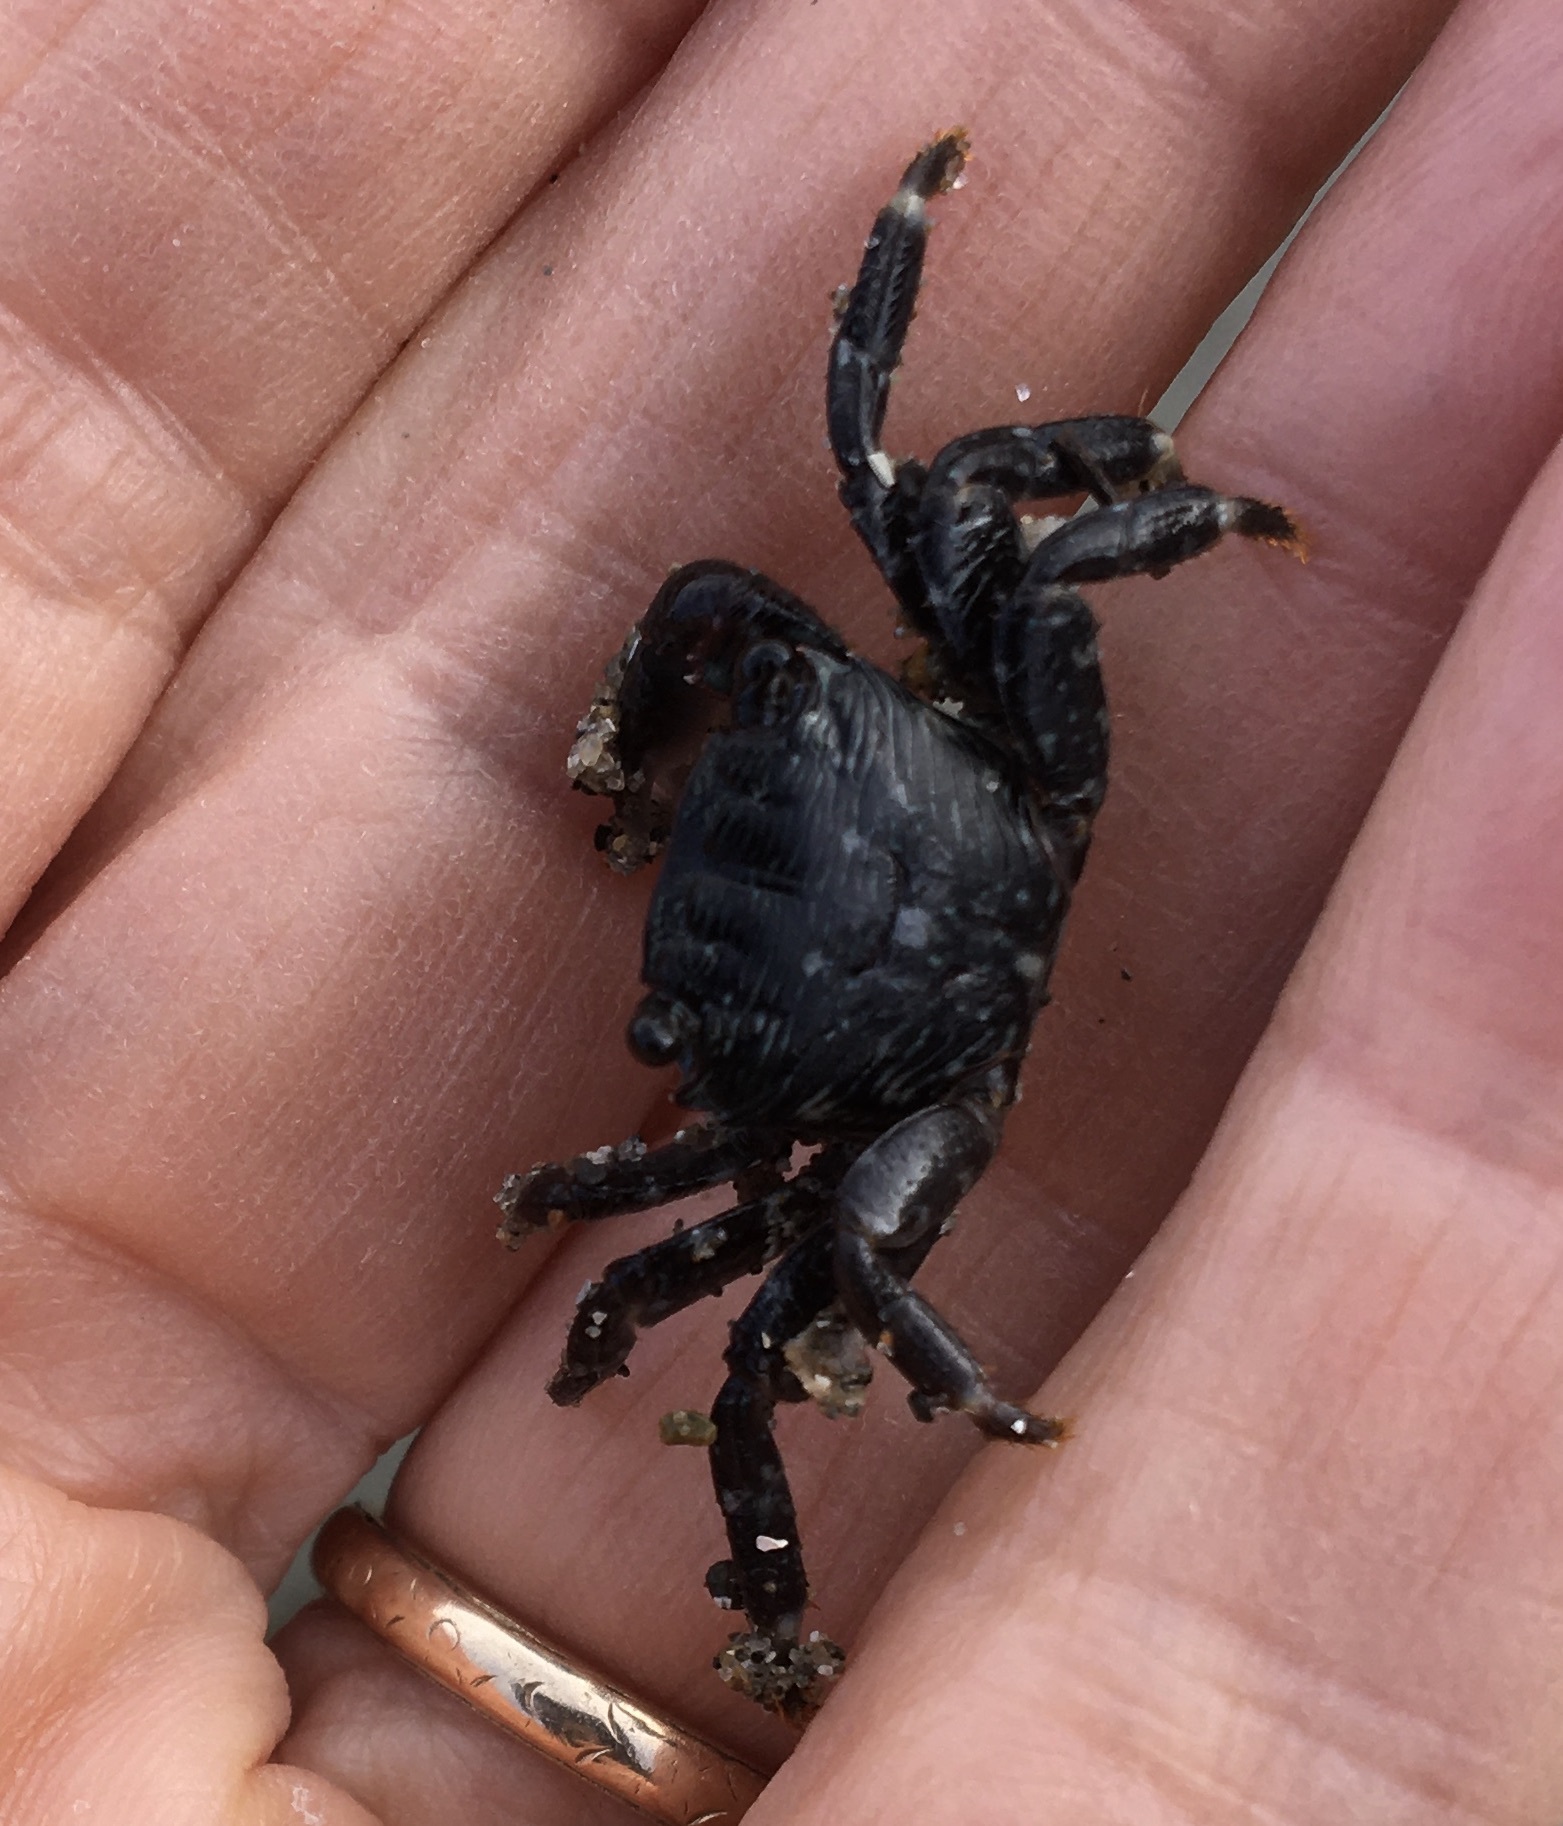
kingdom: Animalia
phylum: Arthropoda
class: Malacostraca
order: Decapoda
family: Grapsidae
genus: Pachygrapsus
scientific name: Pachygrapsus crassipes
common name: Striped shore crab
